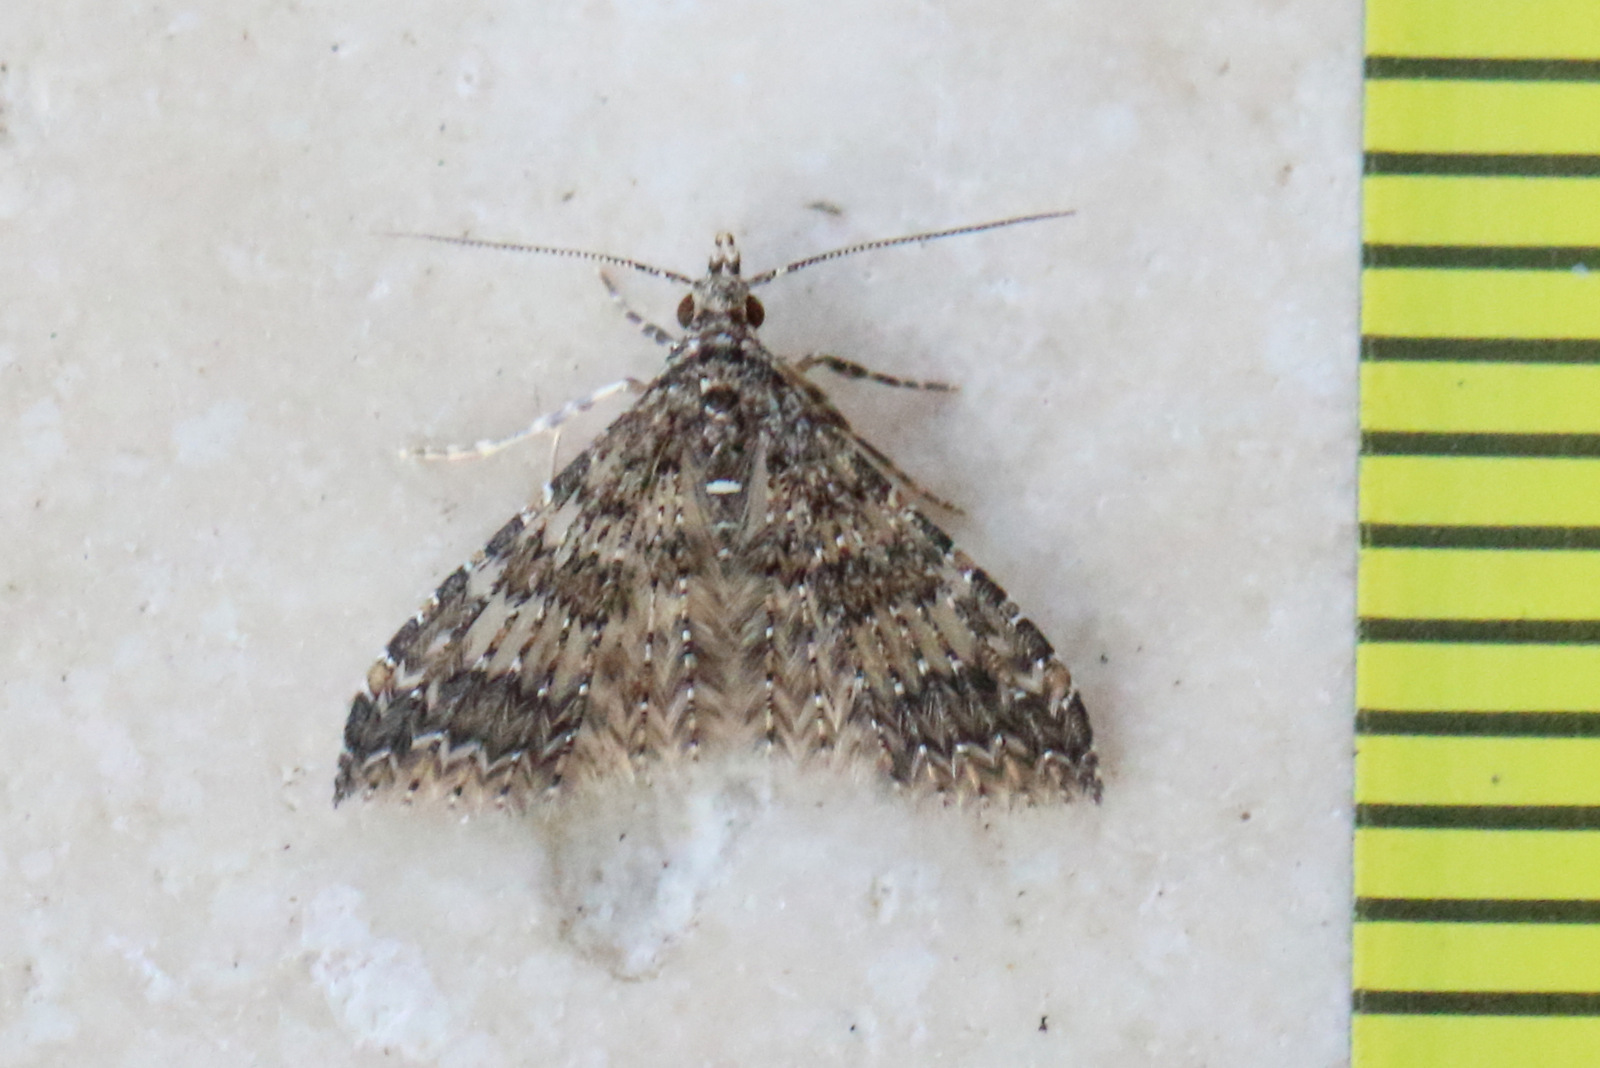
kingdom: Animalia
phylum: Arthropoda
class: Insecta
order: Lepidoptera
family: Alucitidae
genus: Alucita
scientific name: Alucita phricodes
